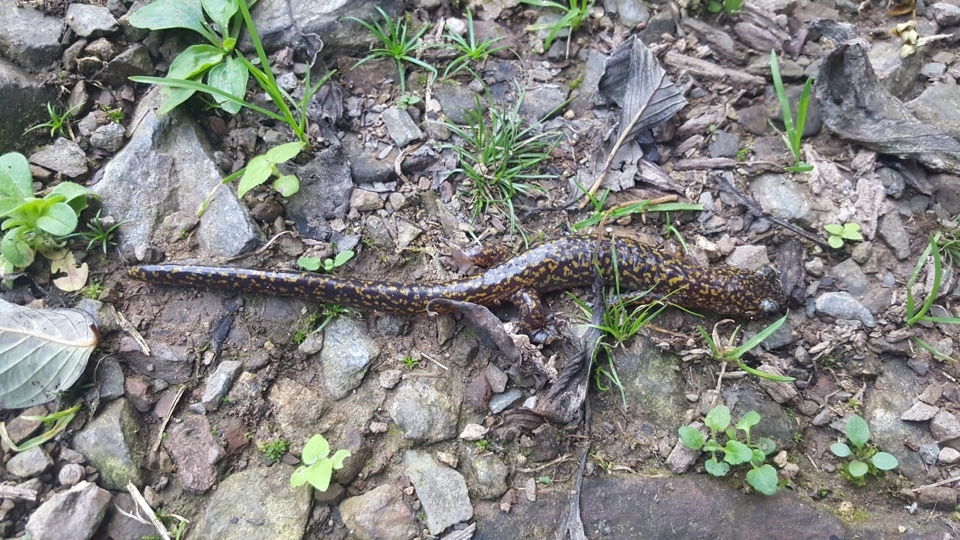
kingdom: Animalia
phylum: Chordata
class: Amphibia
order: Caudata
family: Hynobiidae
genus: Onychodactylus
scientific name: Onychodactylus koreanus
